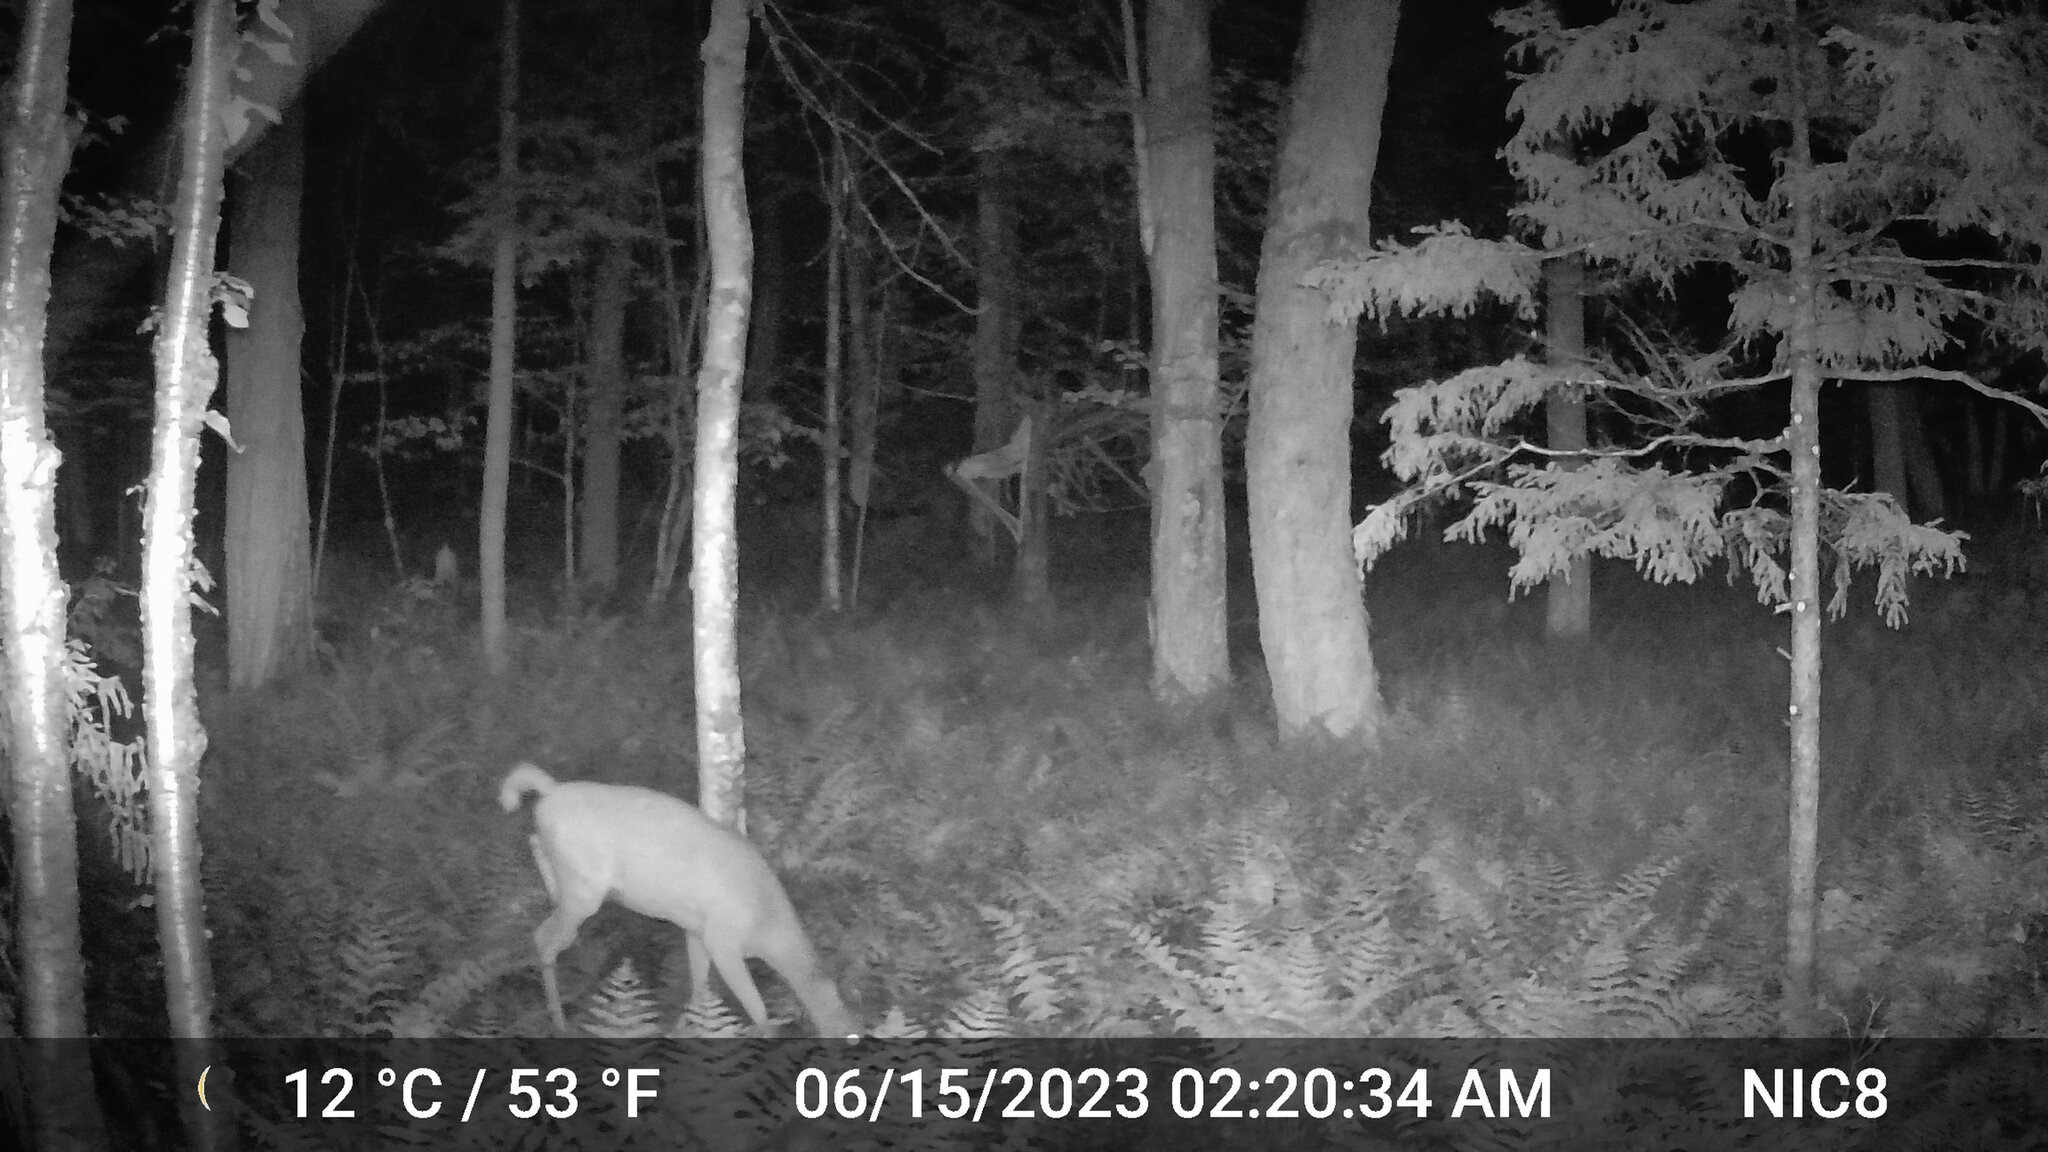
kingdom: Animalia
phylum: Chordata
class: Mammalia
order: Artiodactyla
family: Cervidae
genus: Odocoileus
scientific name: Odocoileus virginianus
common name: White-tailed deer
